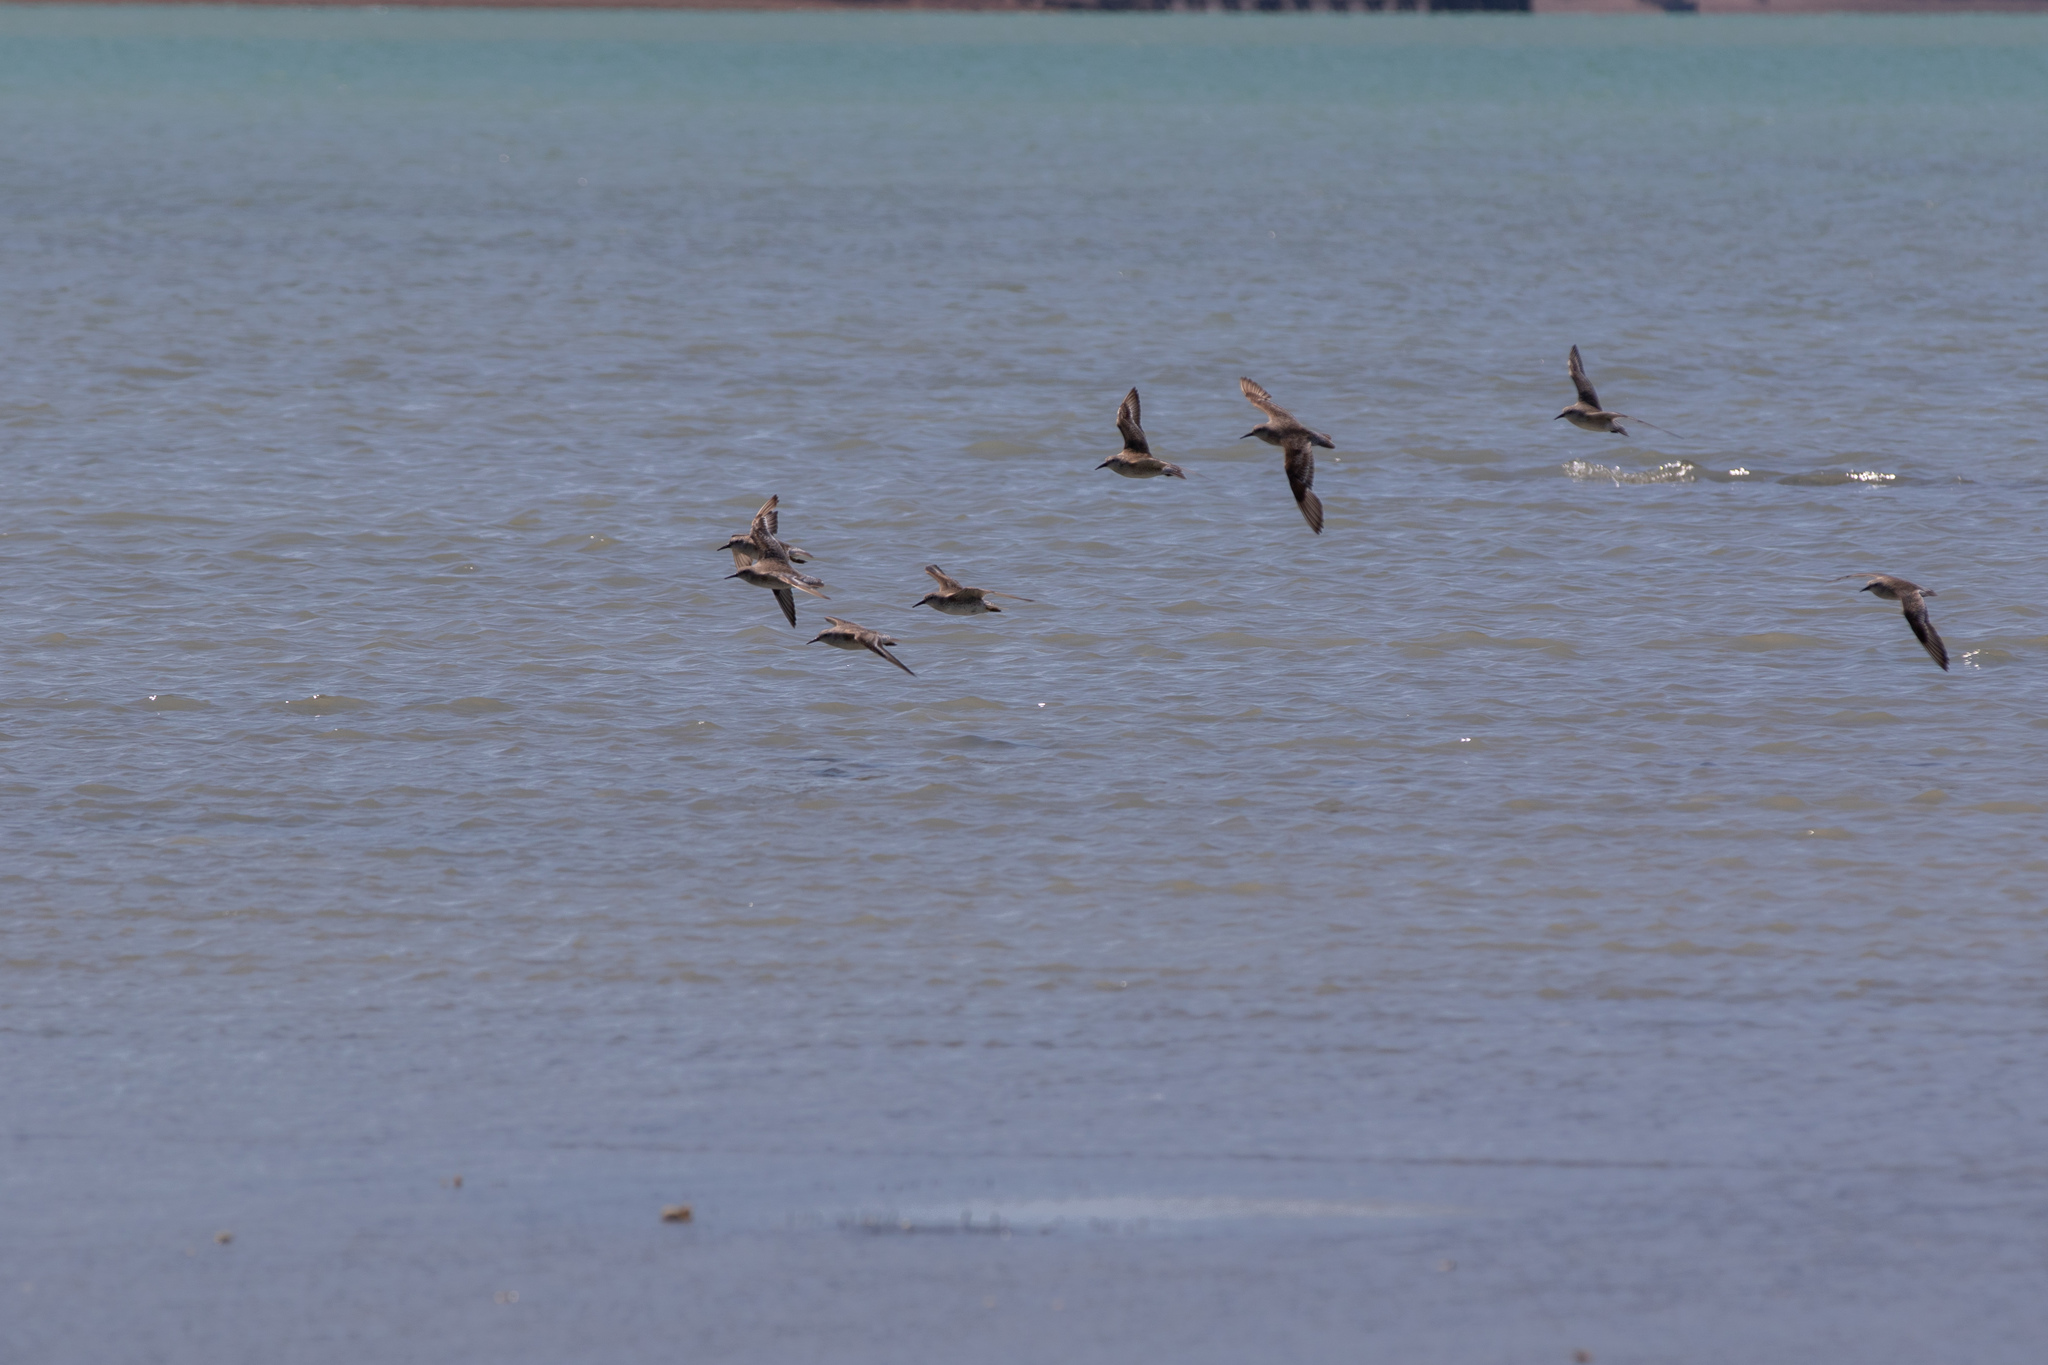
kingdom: Animalia
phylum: Chordata
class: Aves
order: Charadriiformes
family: Scolopacidae
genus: Calidris
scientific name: Calidris canutus
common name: Red knot
